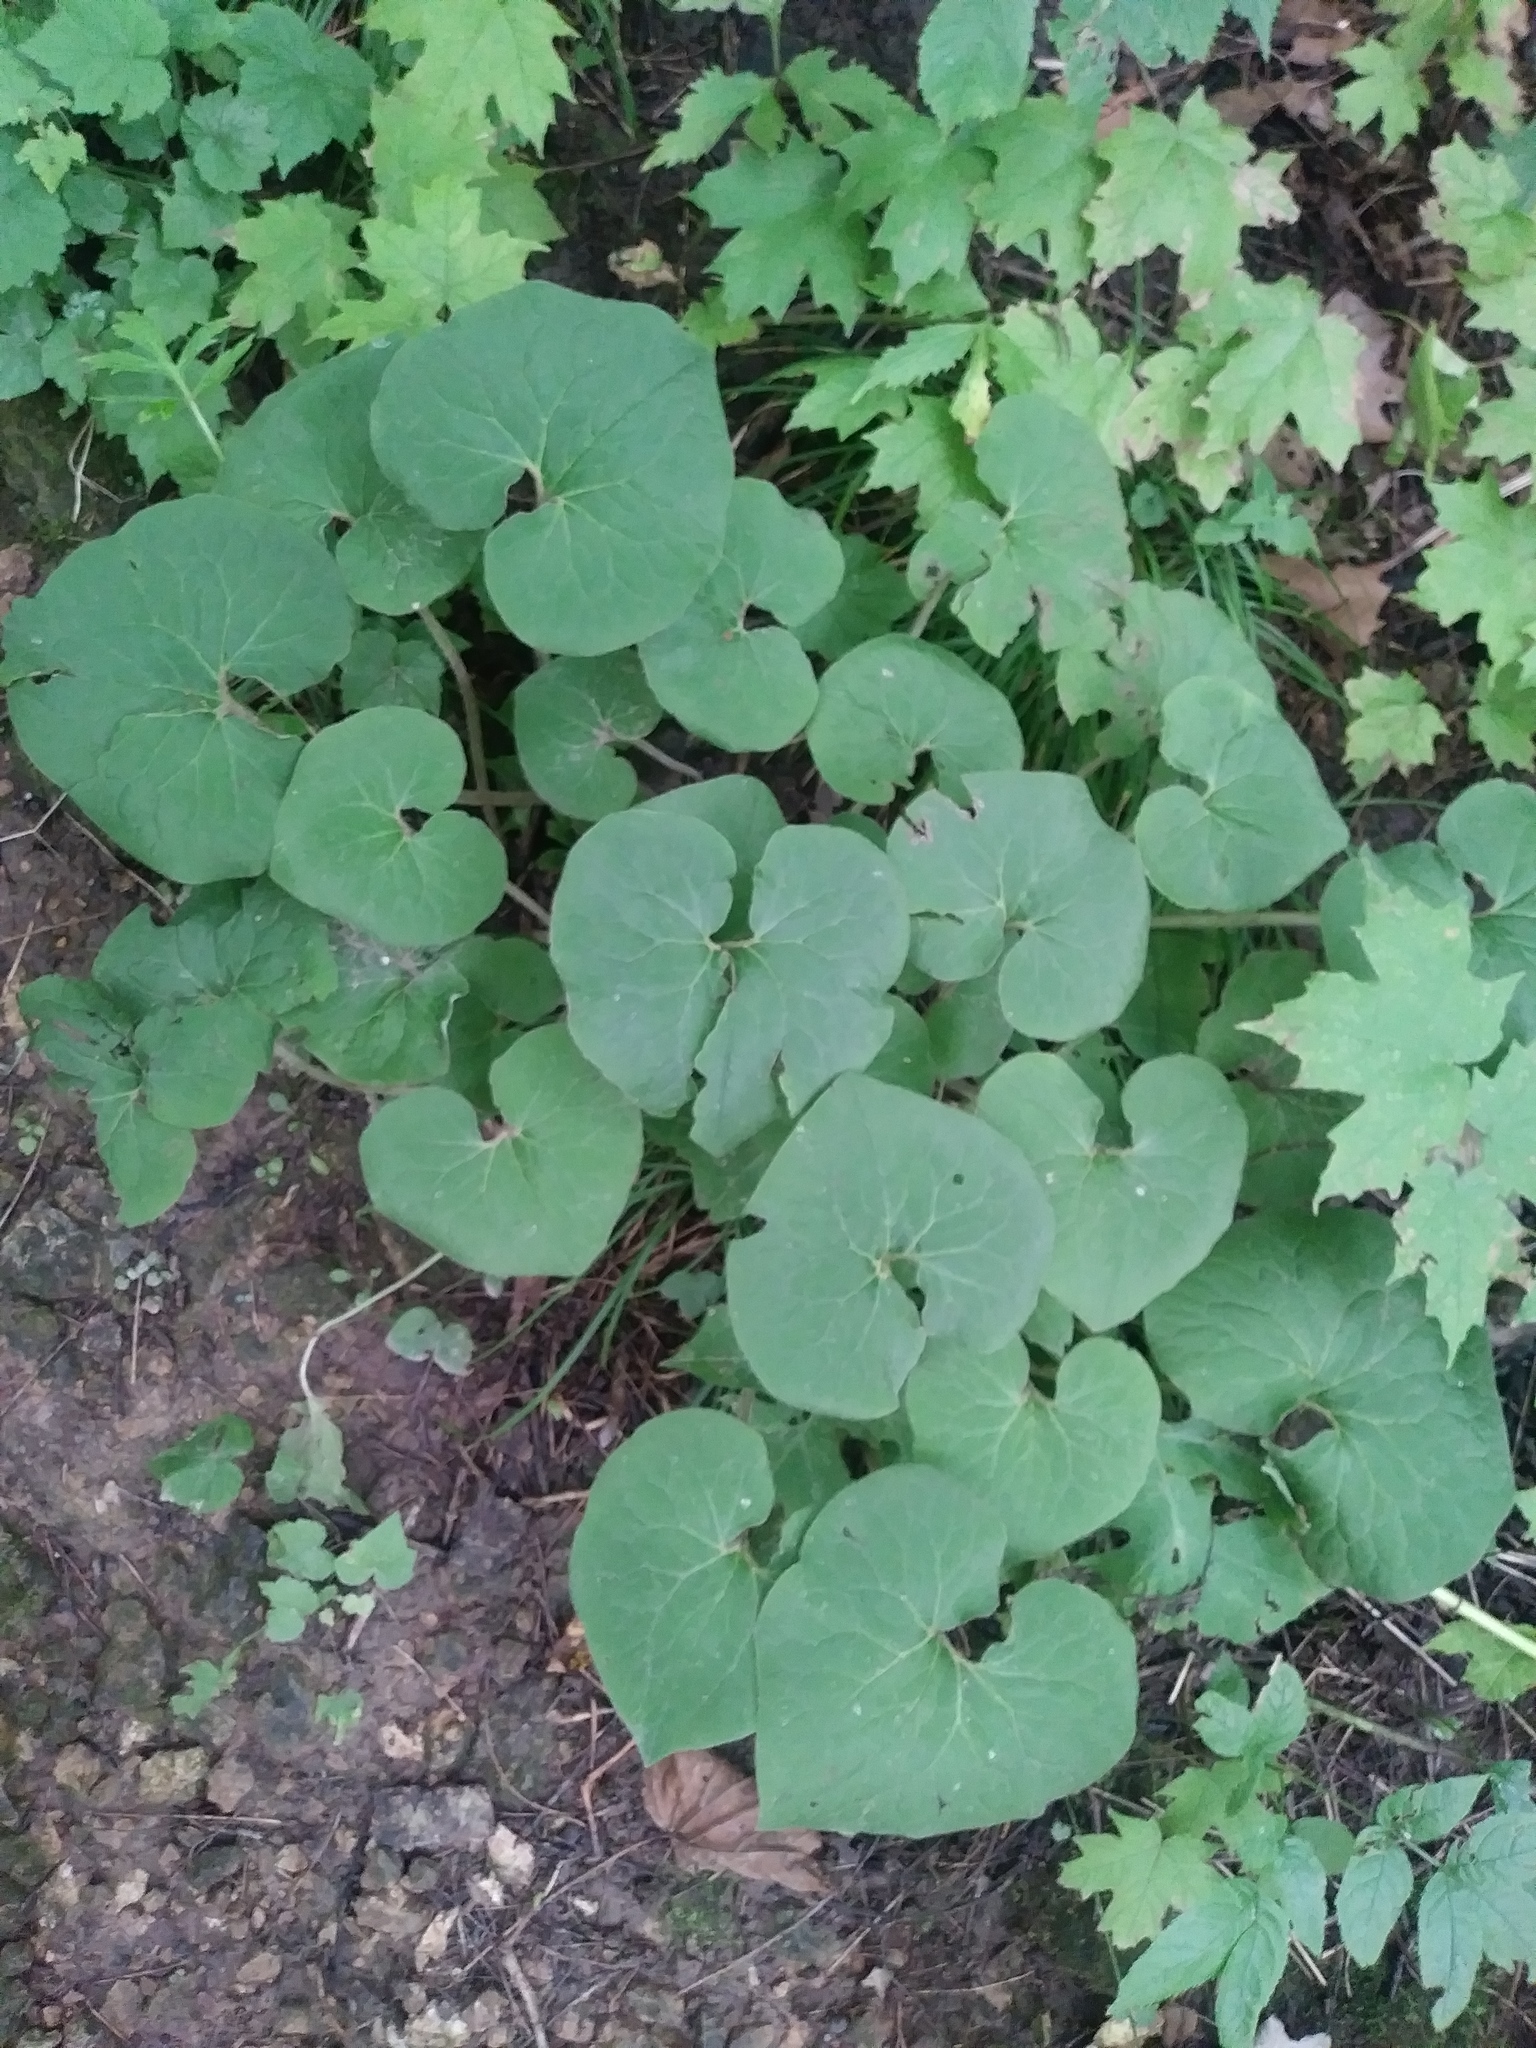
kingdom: Plantae
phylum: Tracheophyta
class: Magnoliopsida
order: Piperales
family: Aristolochiaceae
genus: Asarum
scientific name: Asarum canadense
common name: Wild ginger
